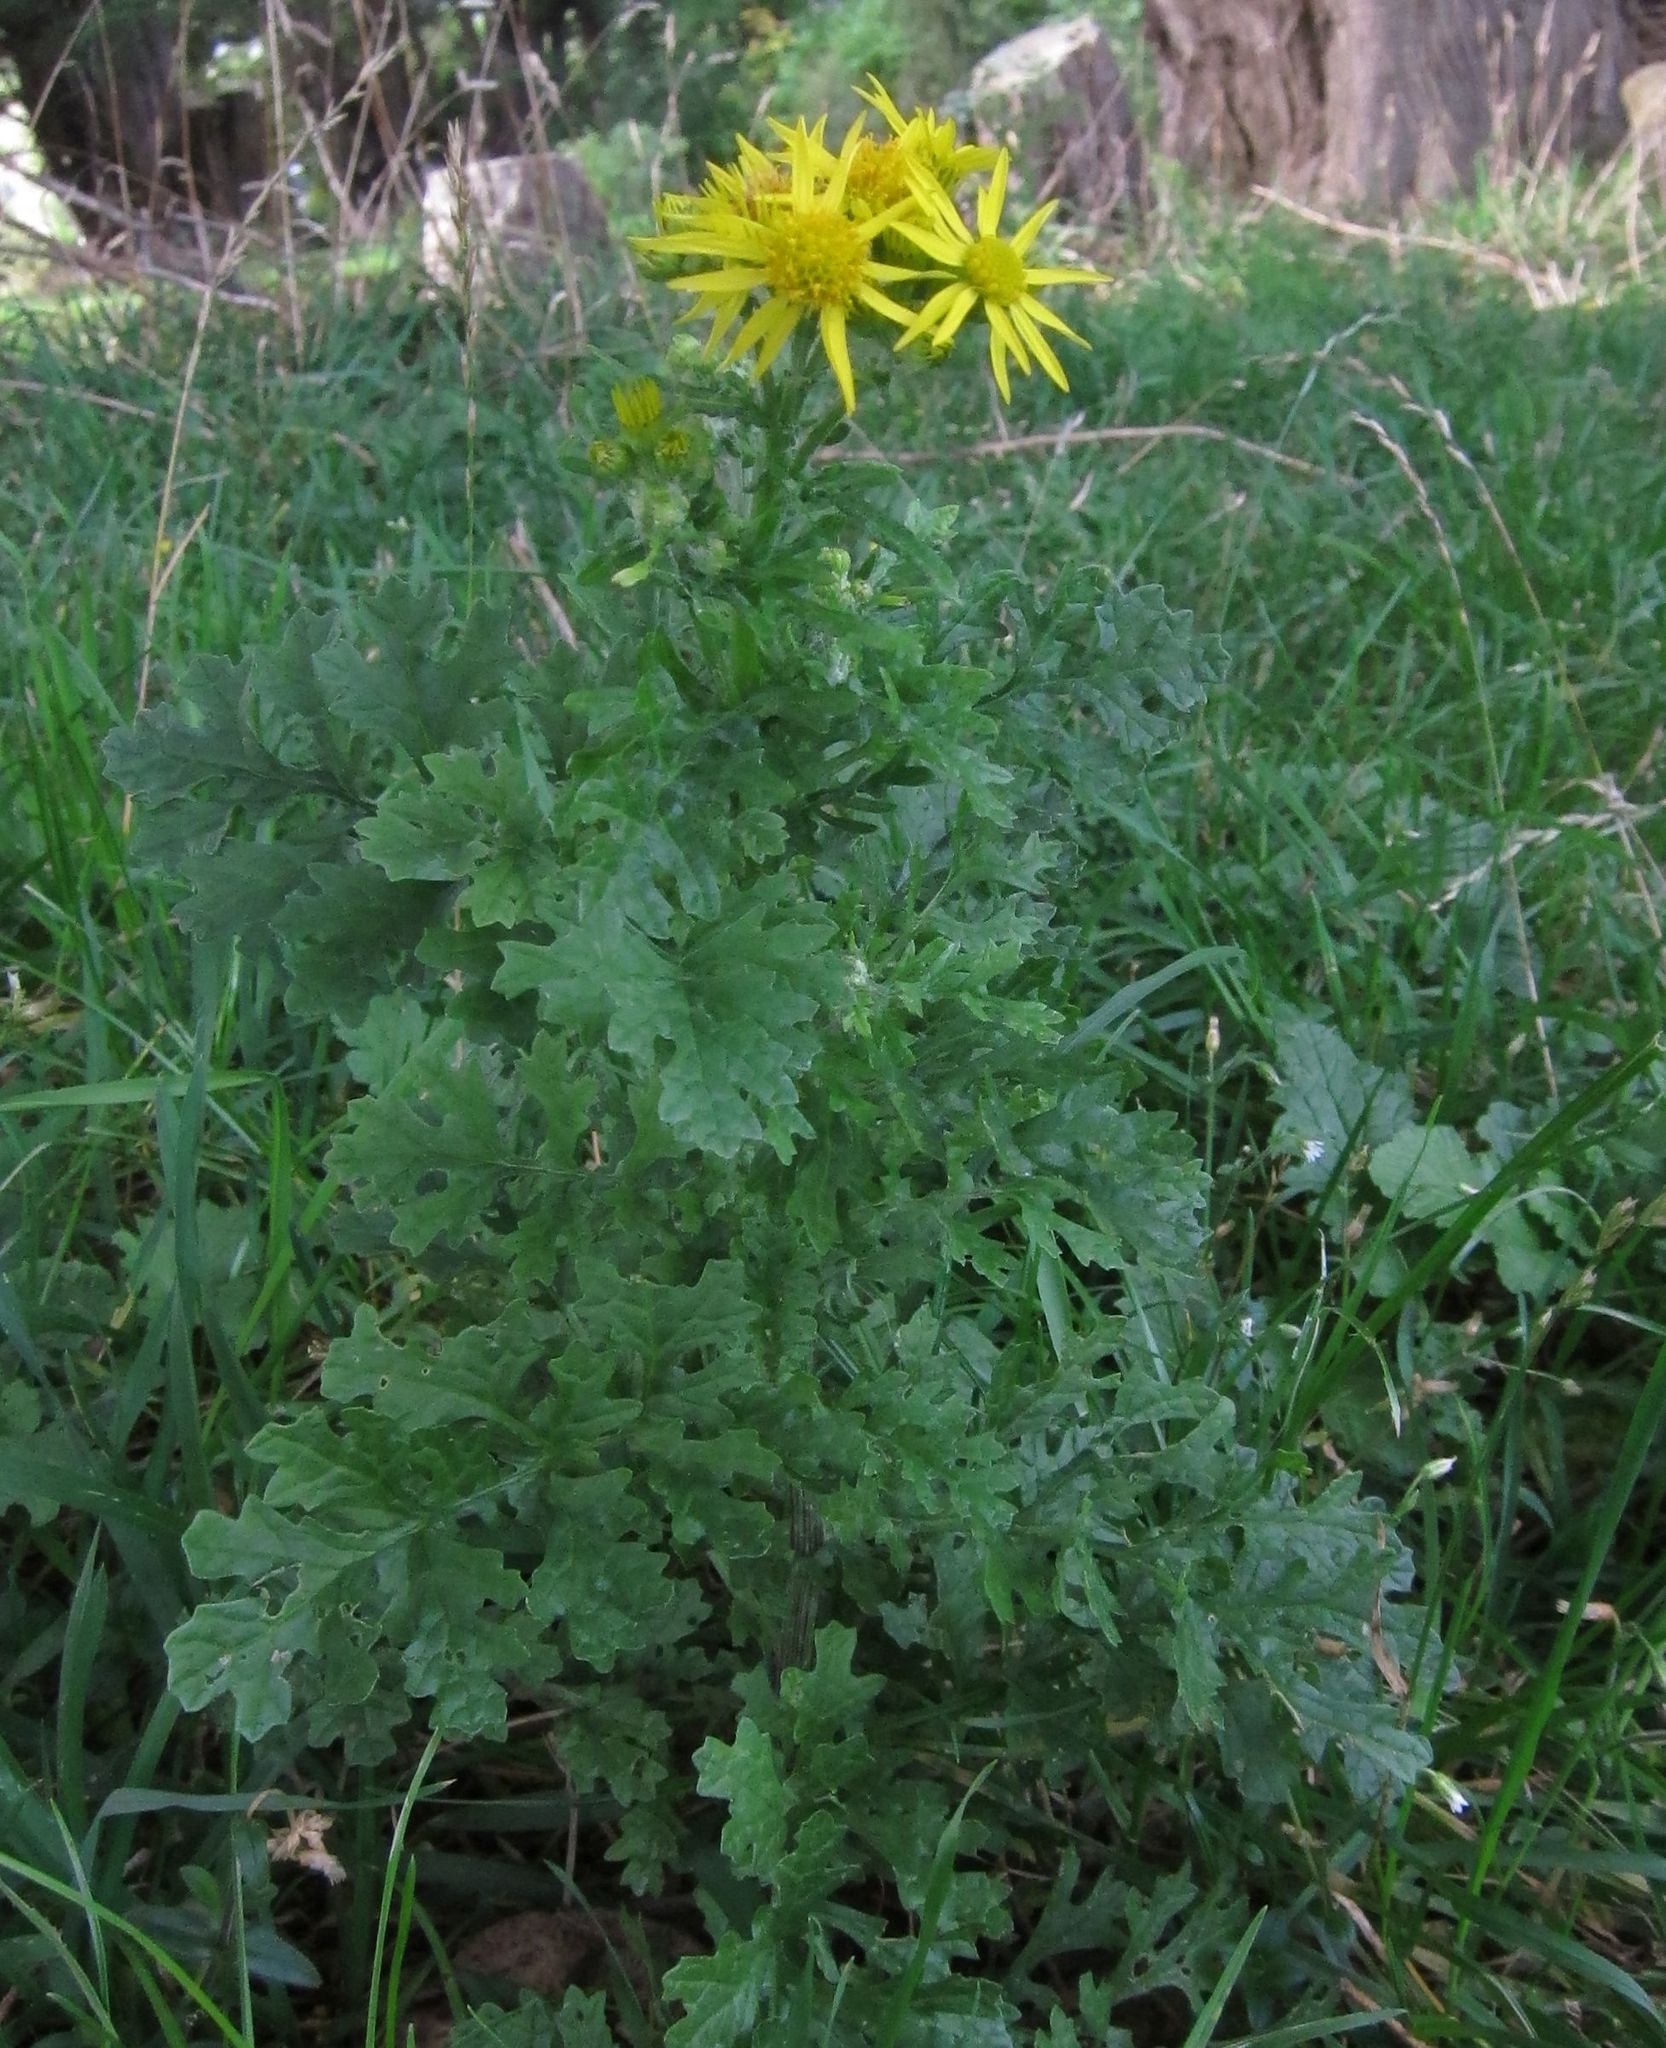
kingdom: Plantae
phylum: Tracheophyta
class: Magnoliopsida
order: Asterales
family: Asteraceae
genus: Jacobaea
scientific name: Jacobaea vulgaris
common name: Stinking willie
